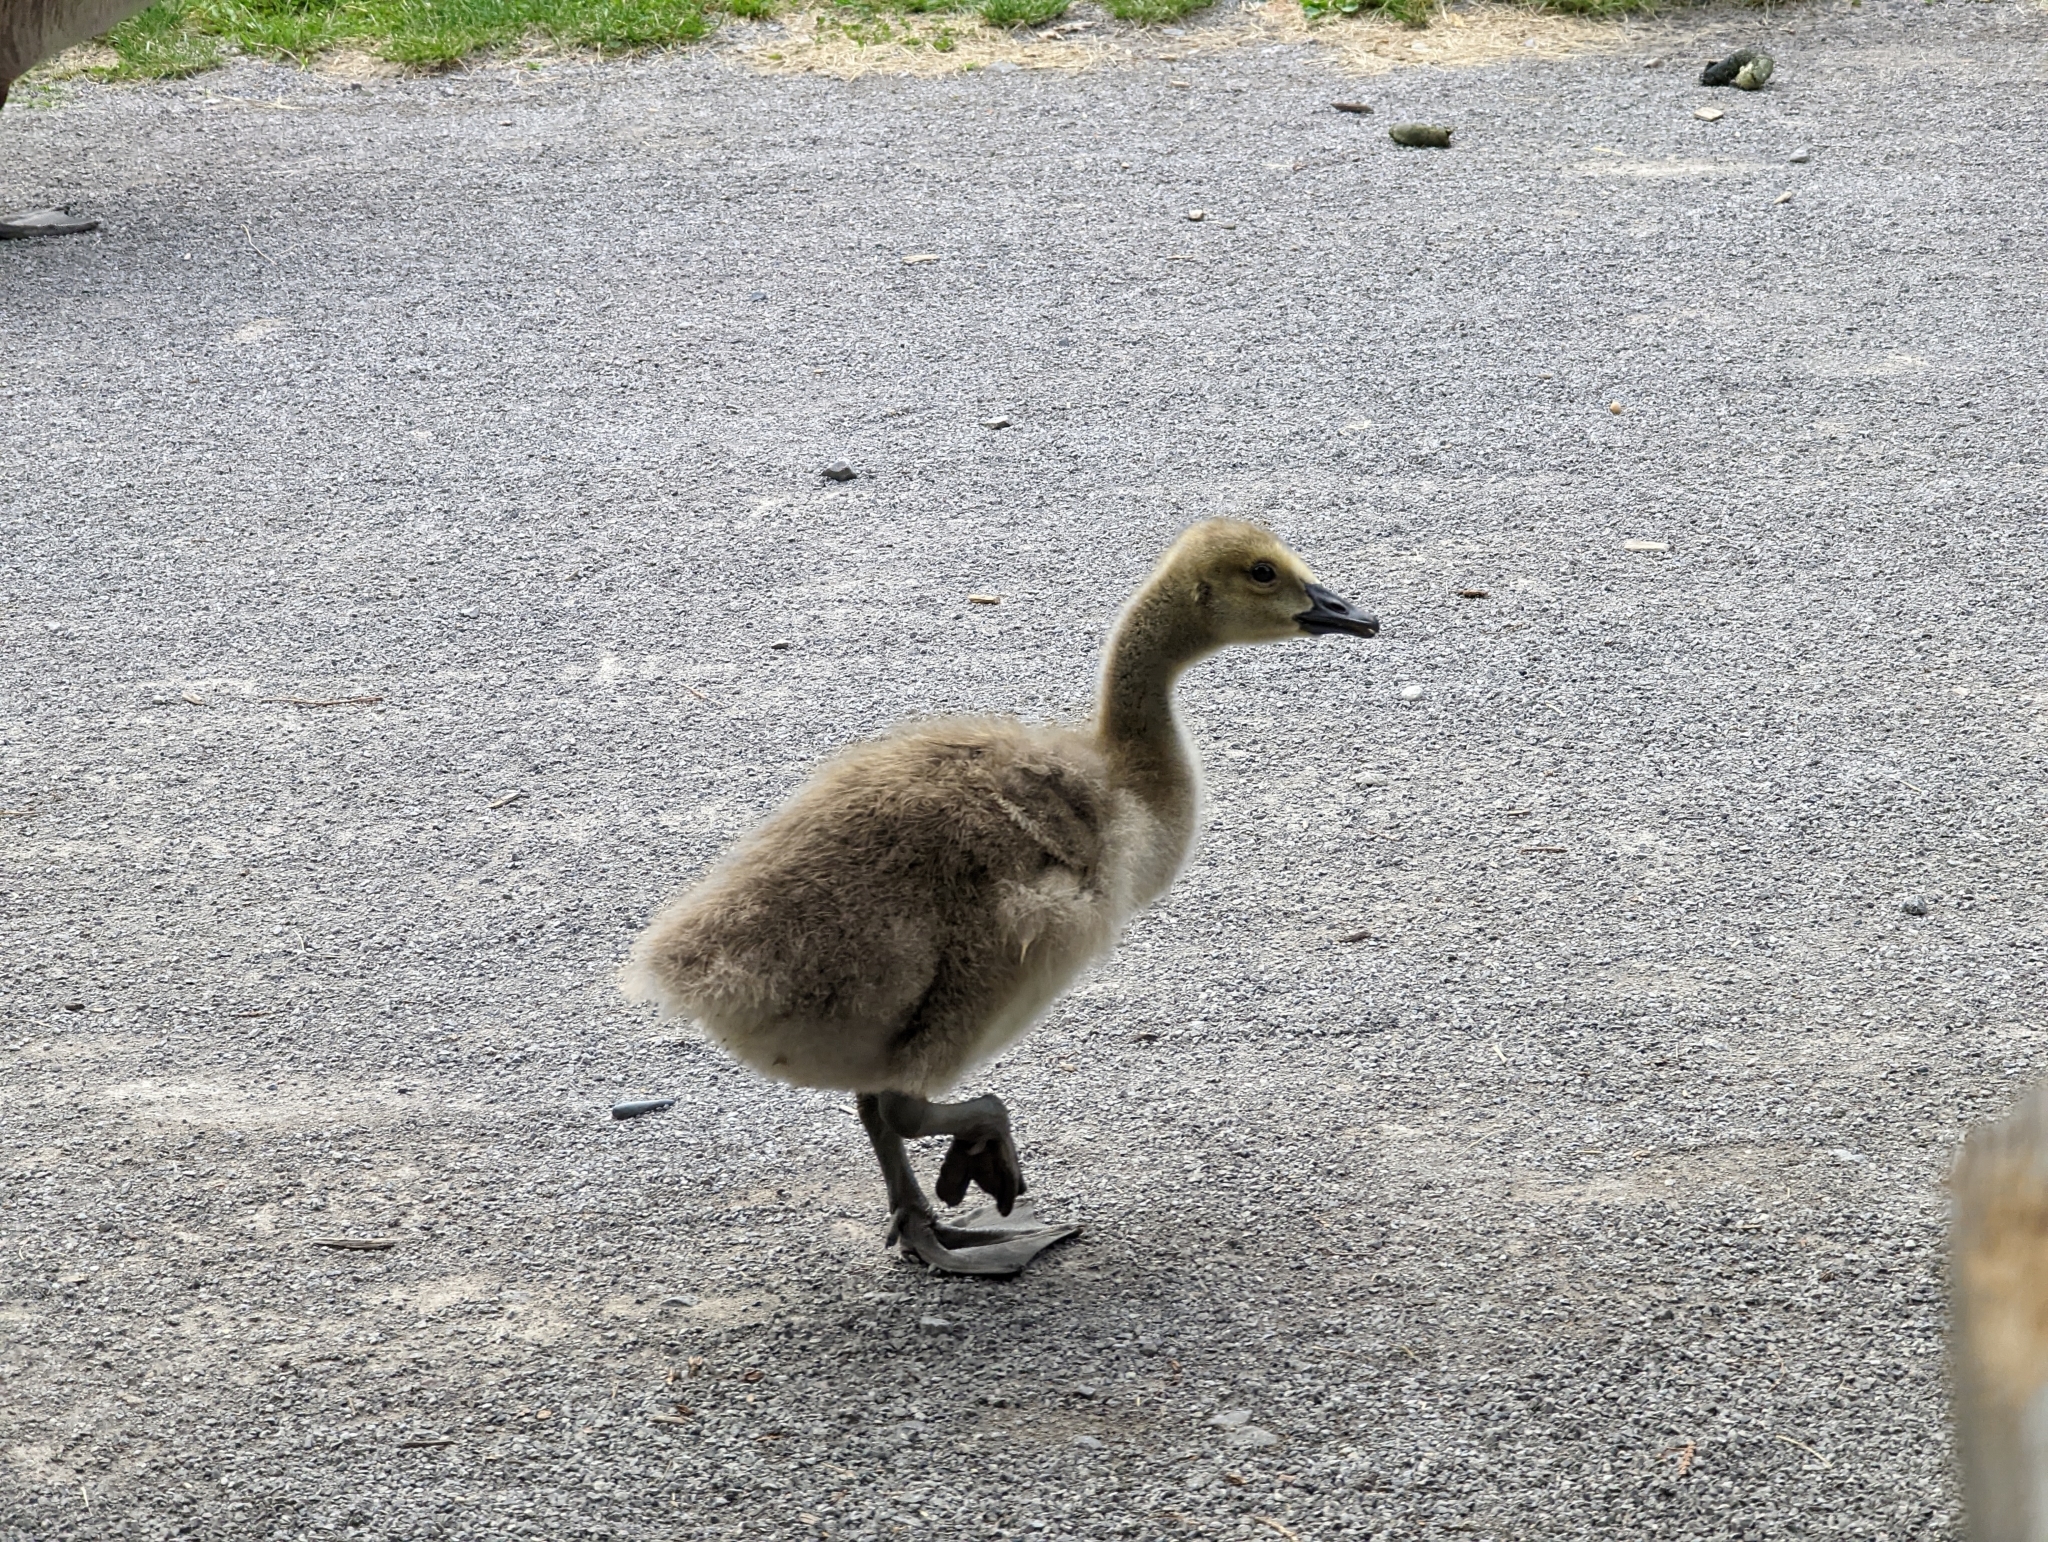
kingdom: Animalia
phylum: Chordata
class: Aves
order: Anseriformes
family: Anatidae
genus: Branta
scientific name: Branta canadensis
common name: Canada goose
